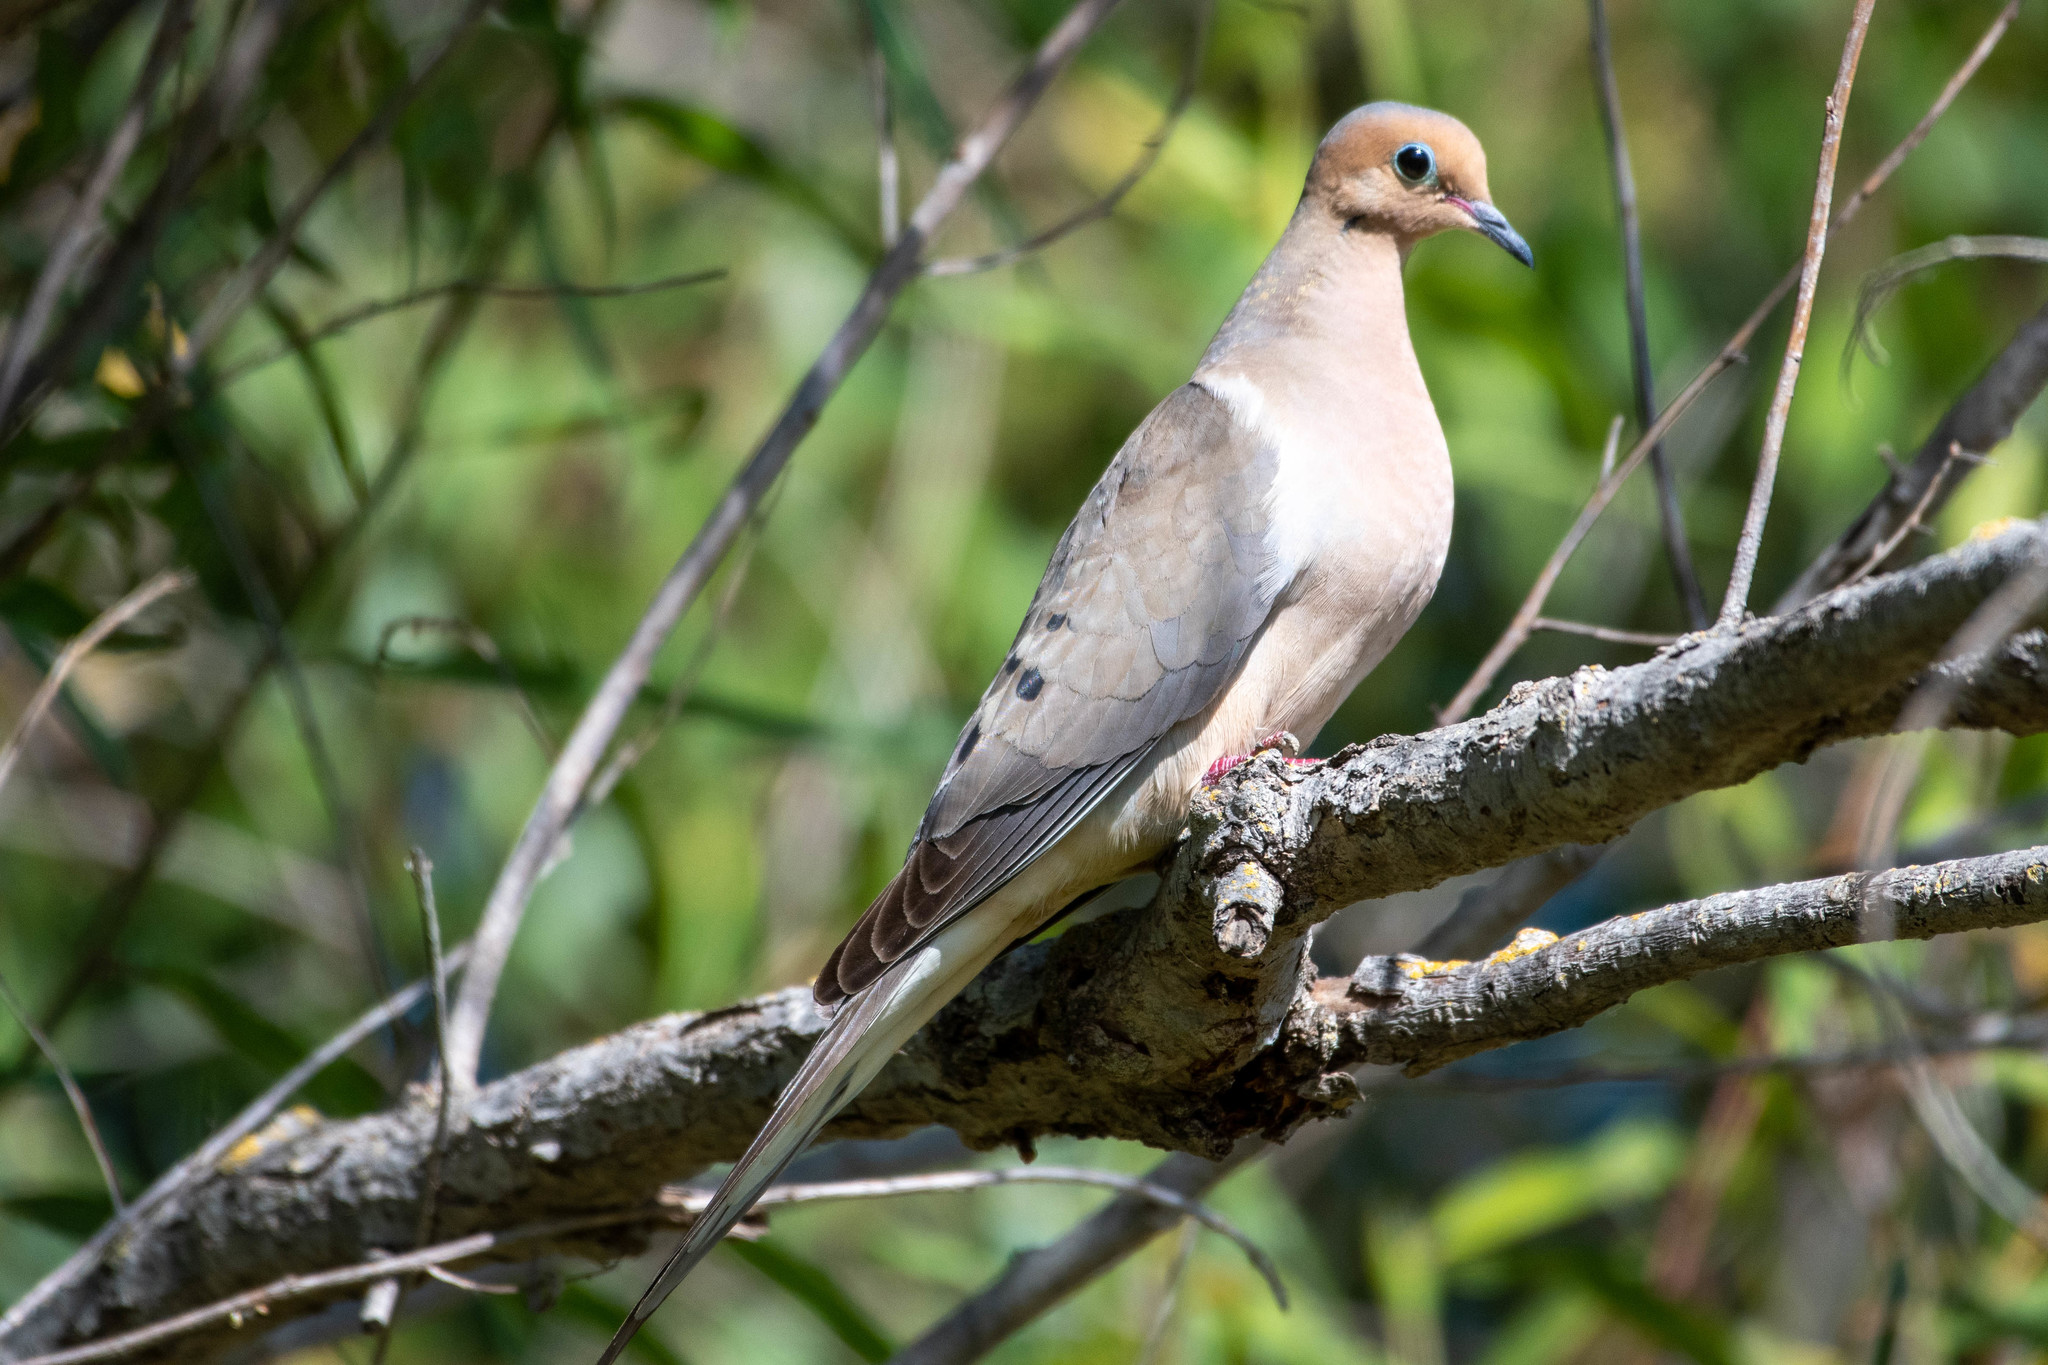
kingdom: Animalia
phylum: Chordata
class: Aves
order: Columbiformes
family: Columbidae
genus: Zenaida
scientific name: Zenaida macroura
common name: Mourning dove
